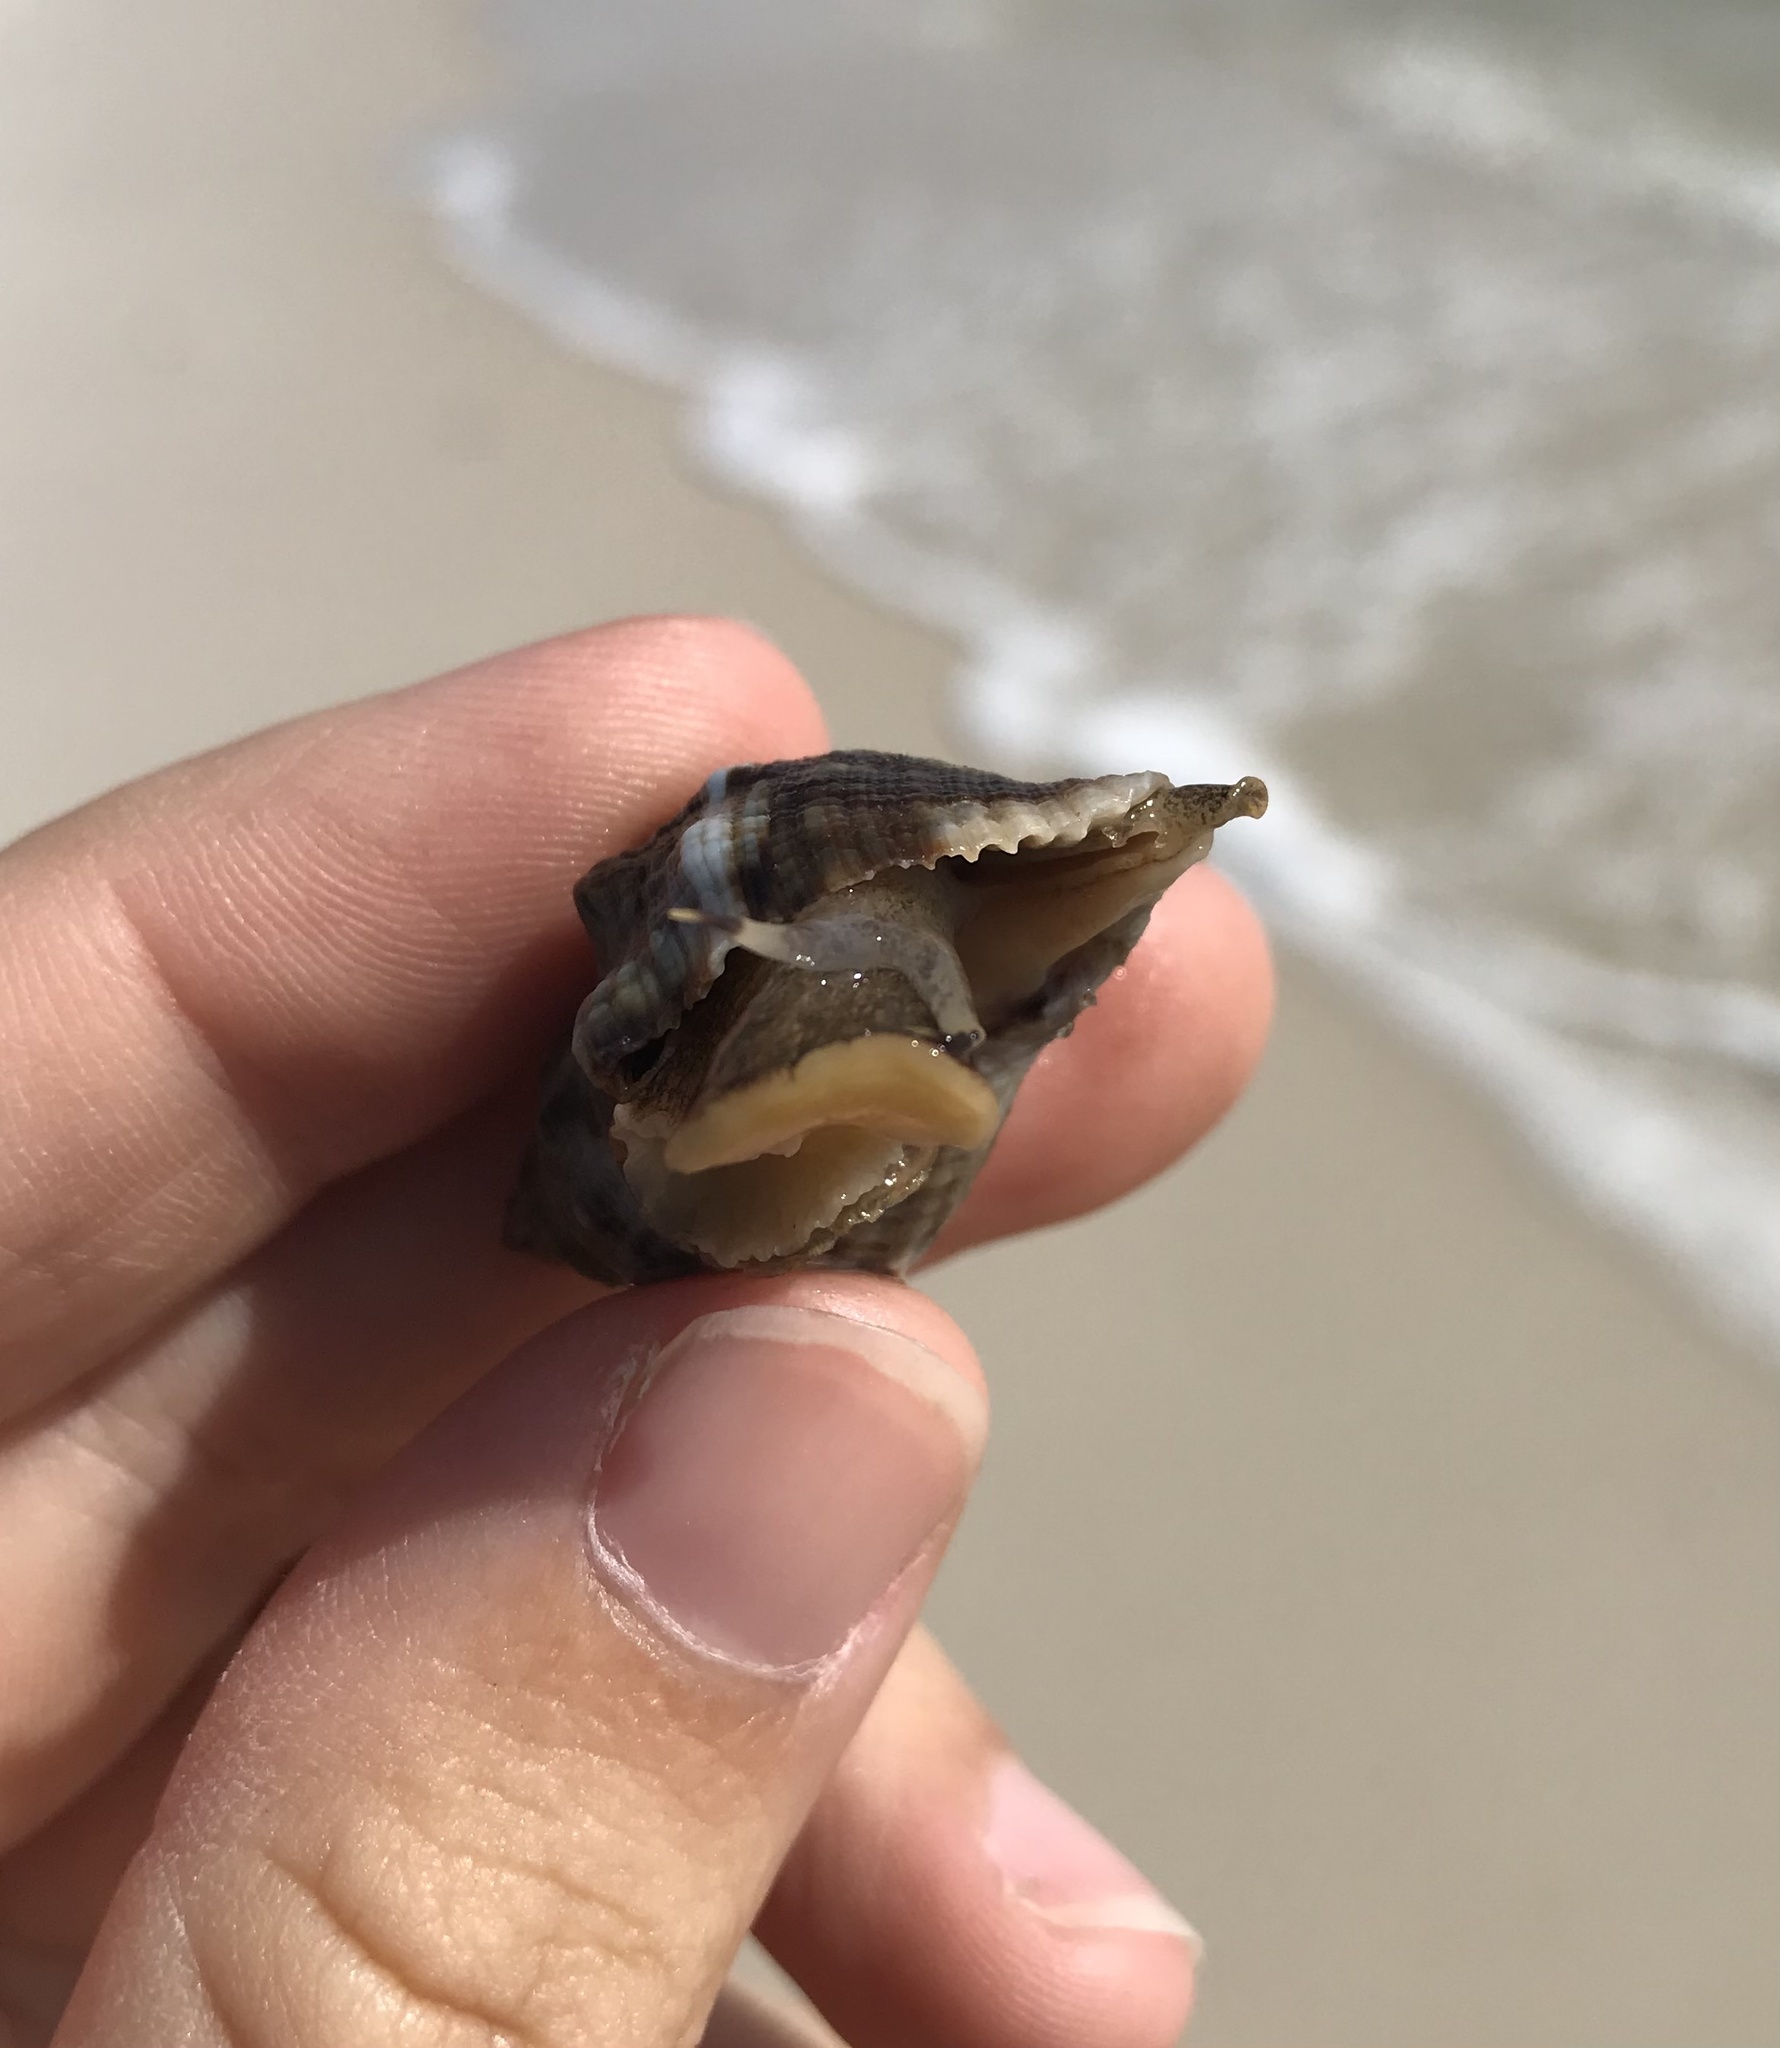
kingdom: Animalia
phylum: Mollusca
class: Gastropoda
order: Neogastropoda
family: Muricidae
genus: Stramonita
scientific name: Stramonita floridana
